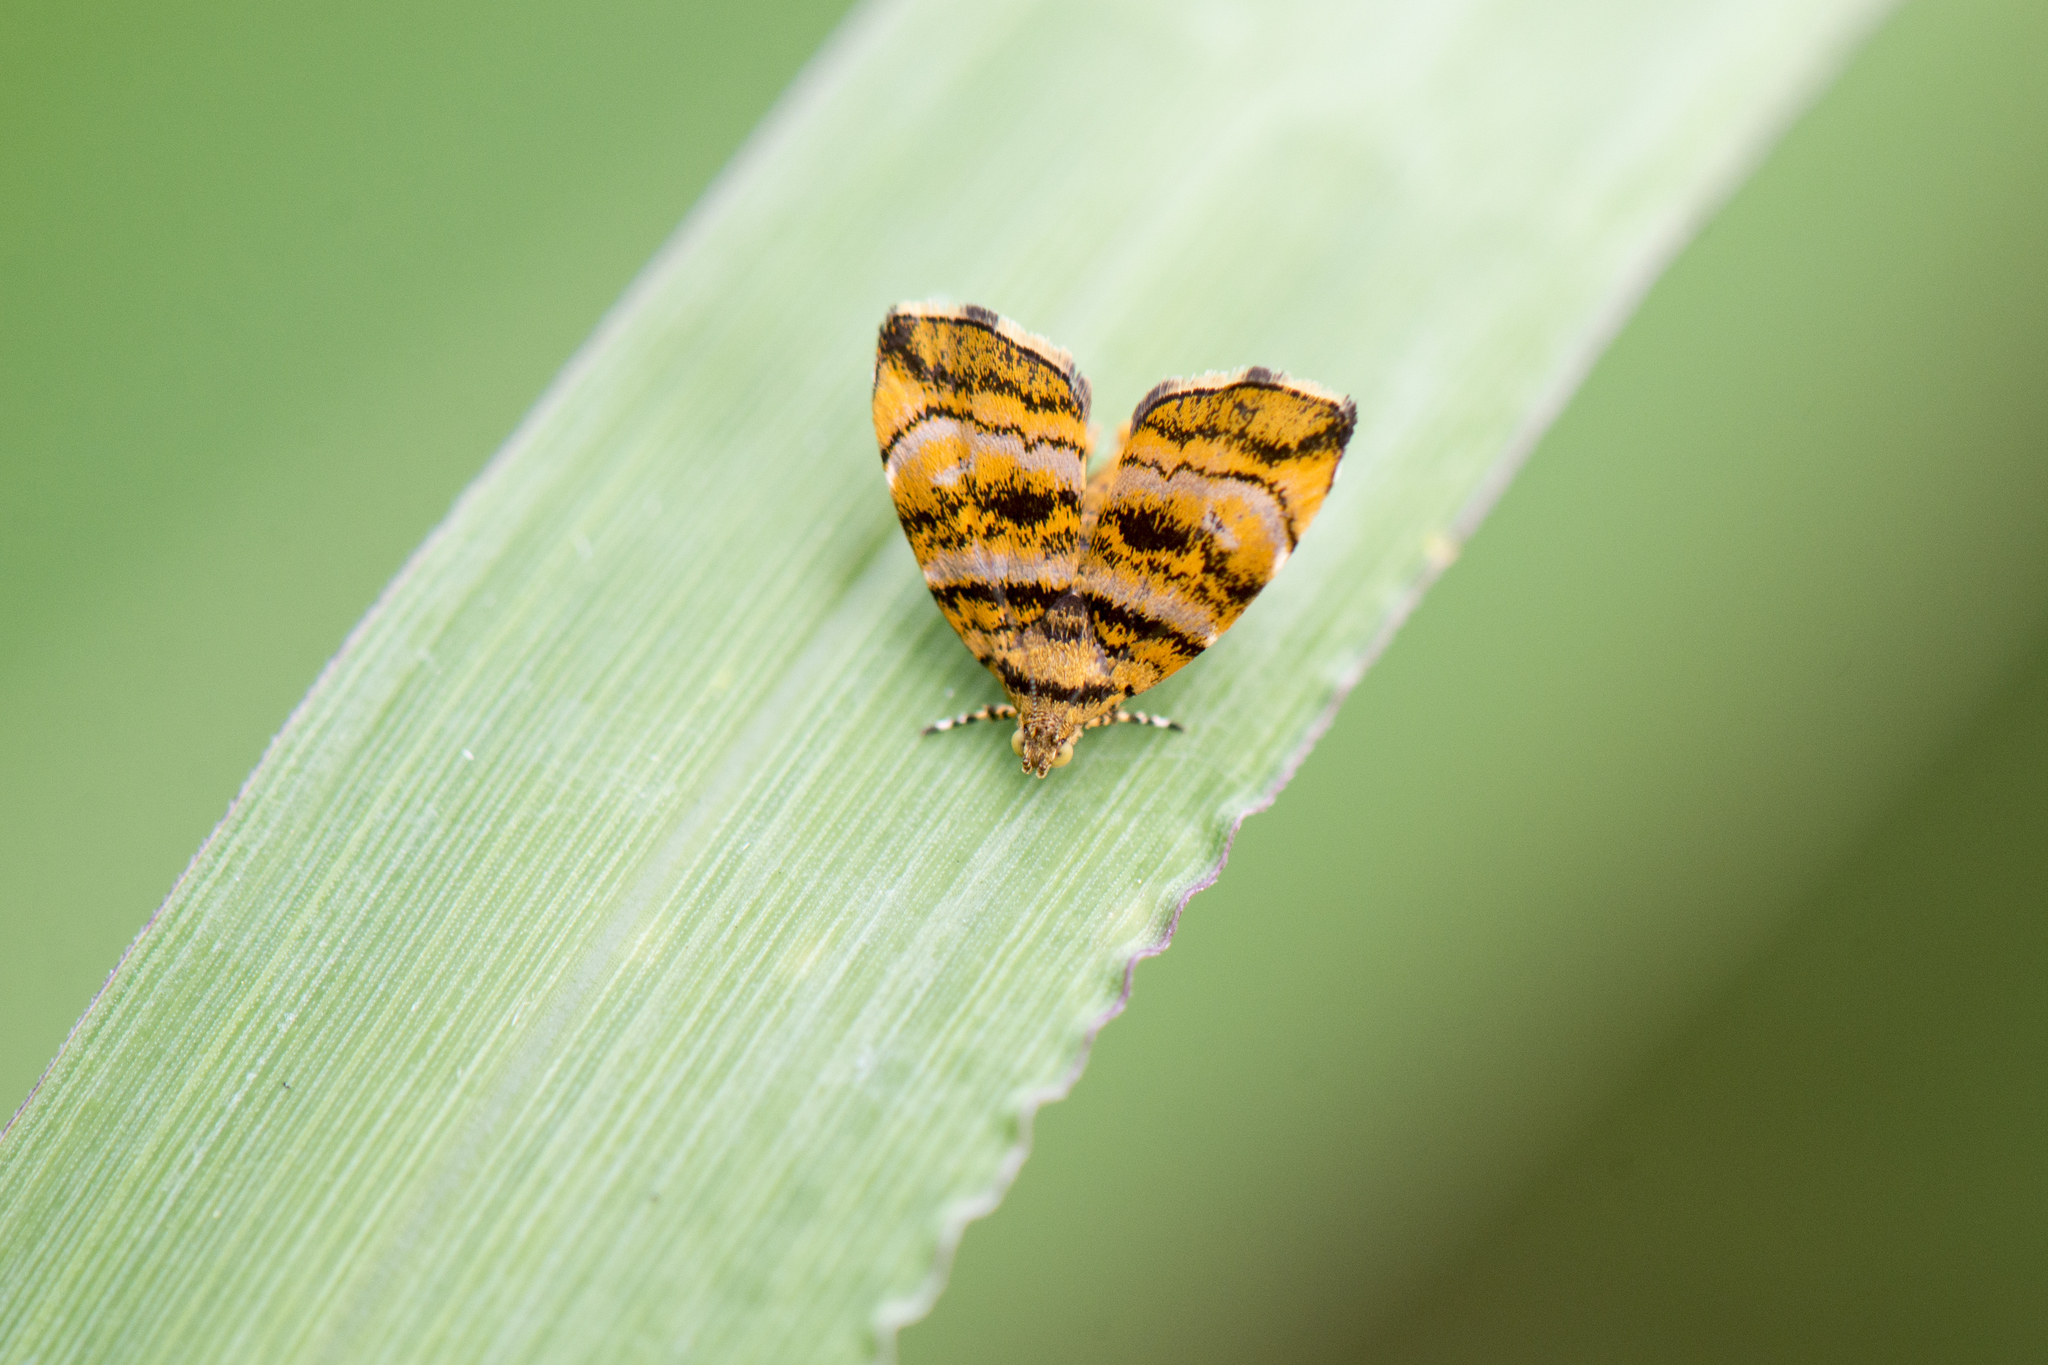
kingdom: Animalia
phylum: Arthropoda
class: Insecta
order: Lepidoptera
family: Choreutidae
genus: Anthophila
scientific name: Anthophila amethystodes
